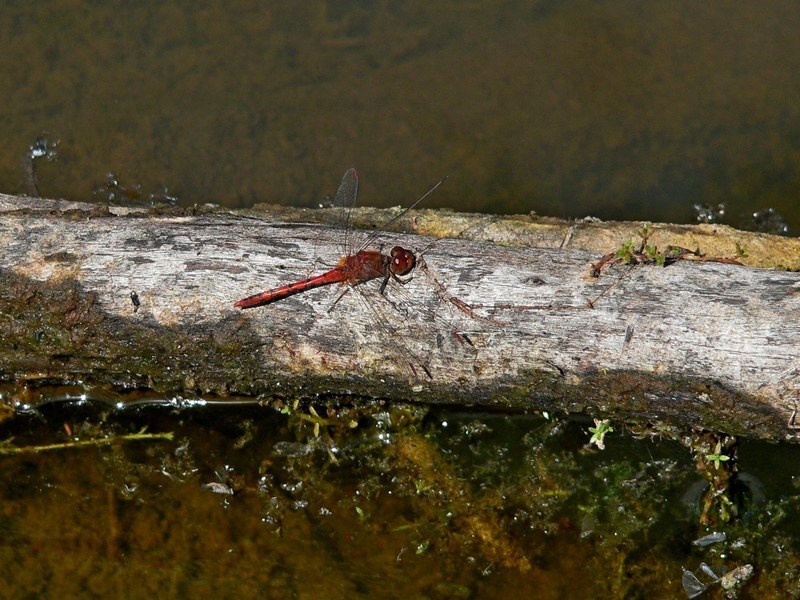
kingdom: Animalia
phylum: Arthropoda
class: Insecta
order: Odonata
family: Libellulidae
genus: Diplacodes
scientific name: Diplacodes bipunctata
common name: Red percher dragonfly
